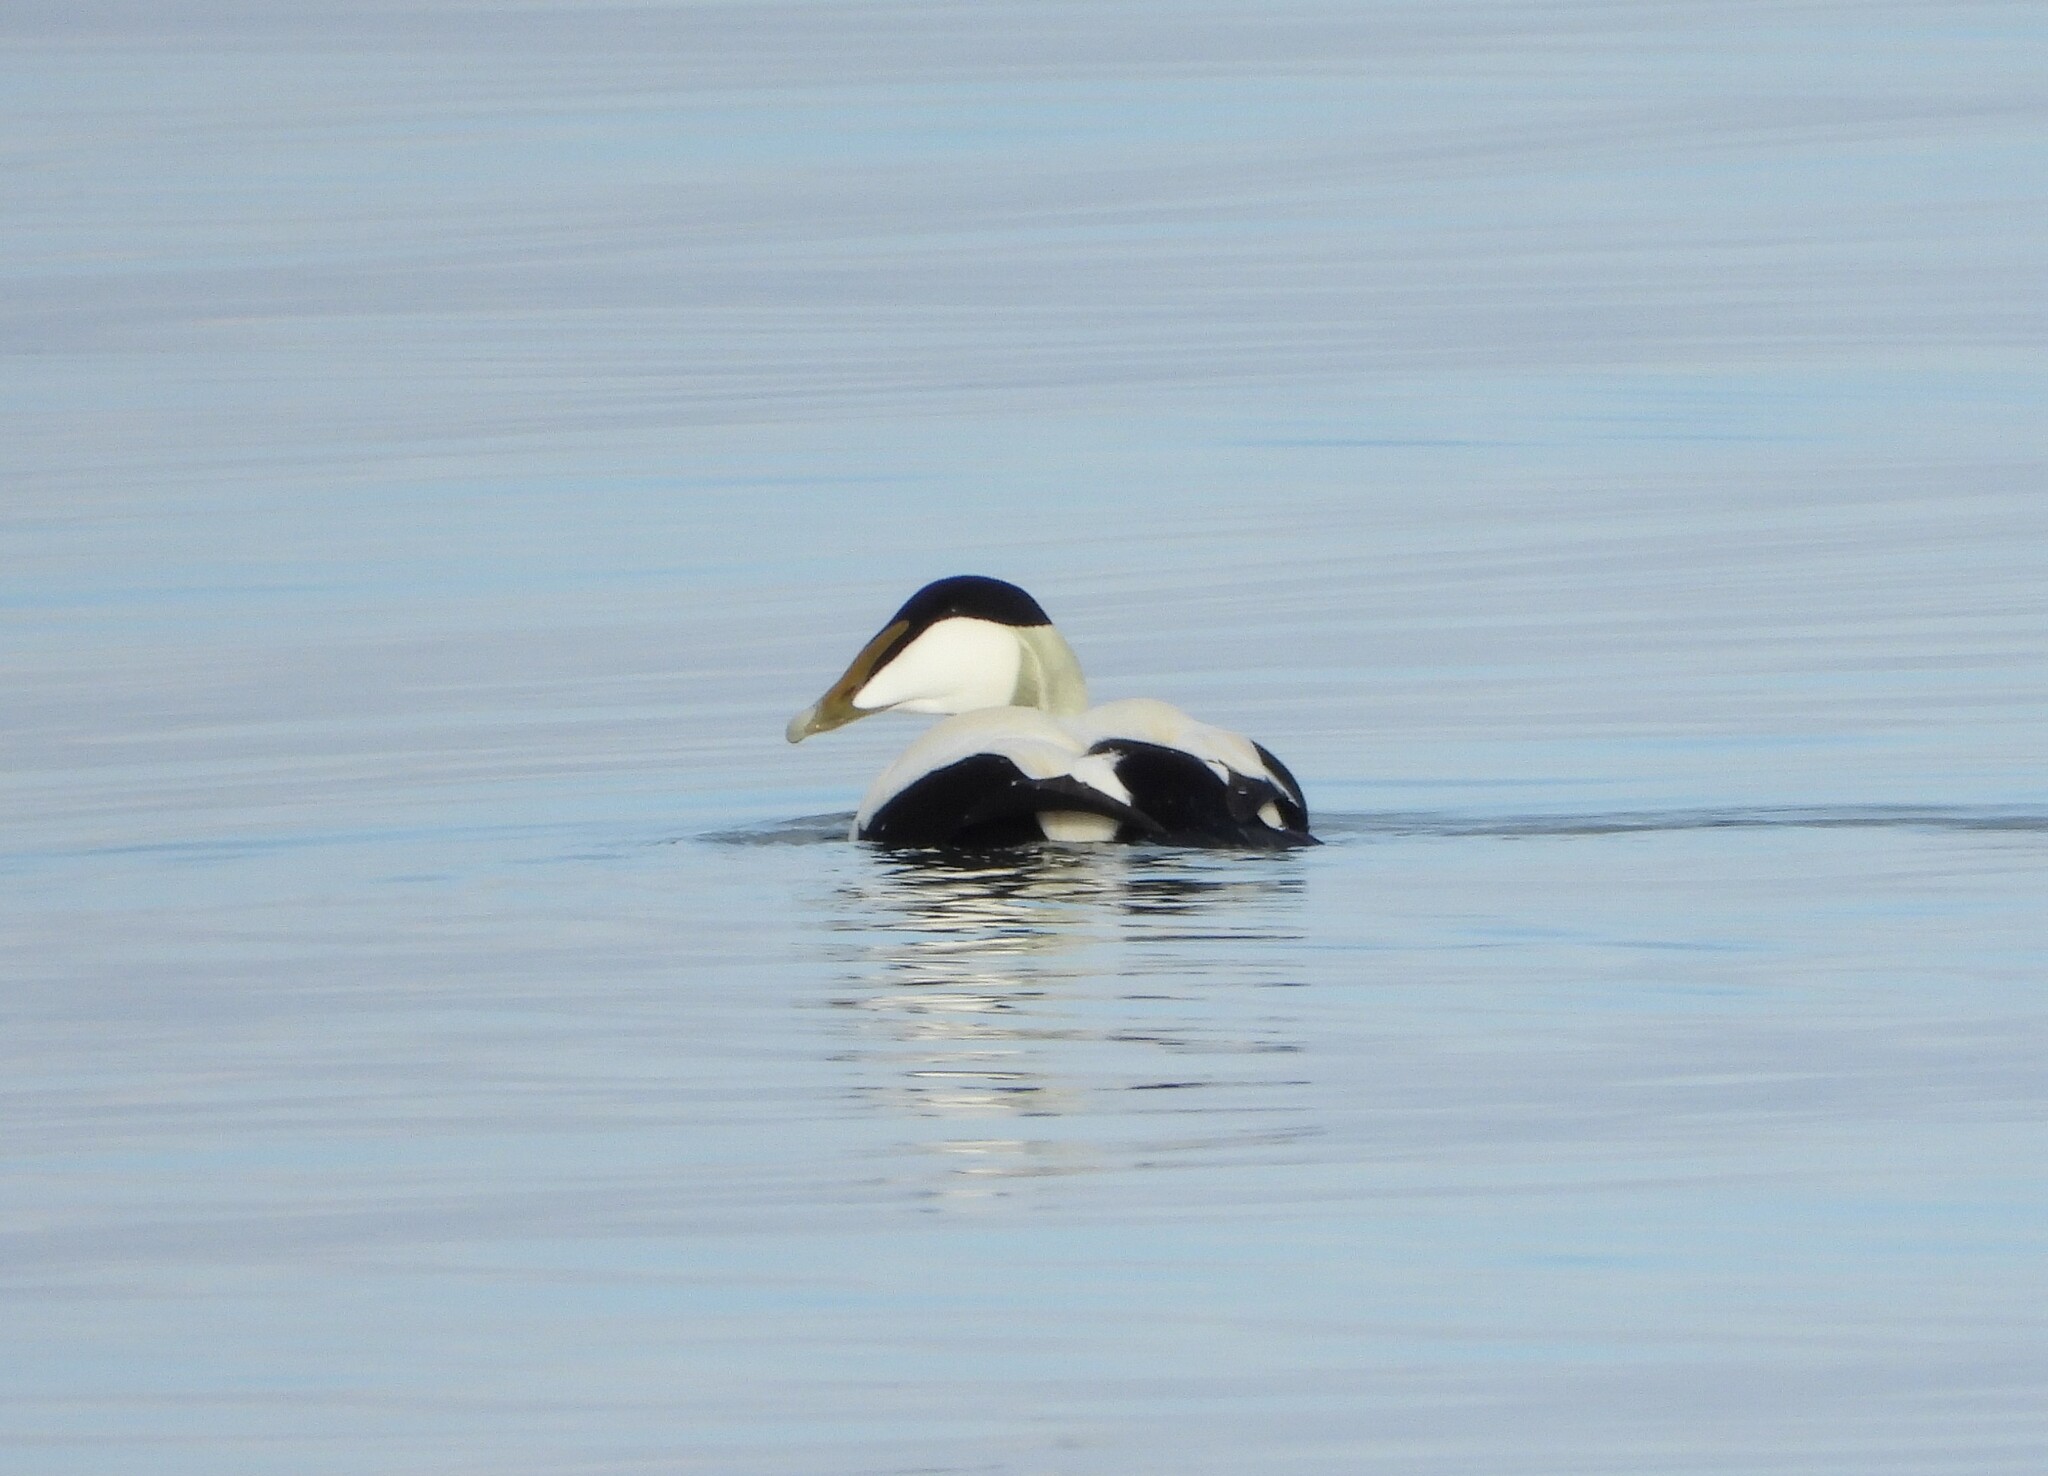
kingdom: Animalia
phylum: Chordata
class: Aves
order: Anseriformes
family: Anatidae
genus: Somateria
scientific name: Somateria mollissima
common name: Common eider
